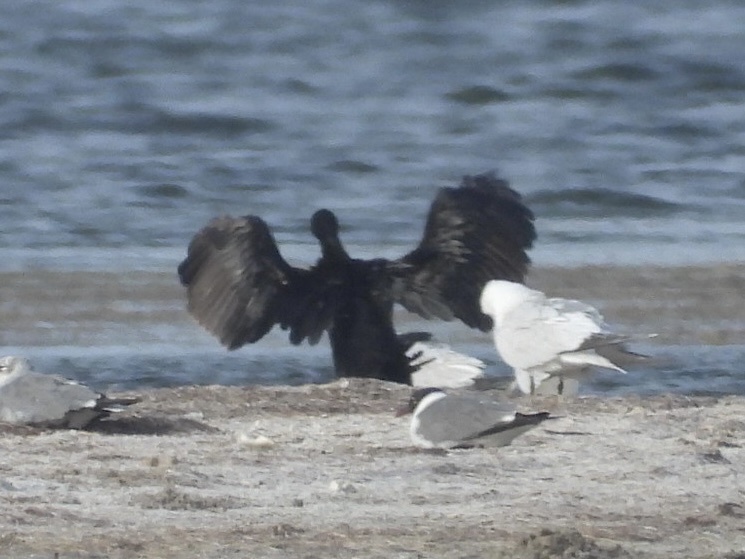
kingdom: Animalia
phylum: Chordata
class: Aves
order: Suliformes
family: Phalacrocoracidae
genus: Phalacrocorax
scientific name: Phalacrocorax brasilianus
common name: Neotropic cormorant
